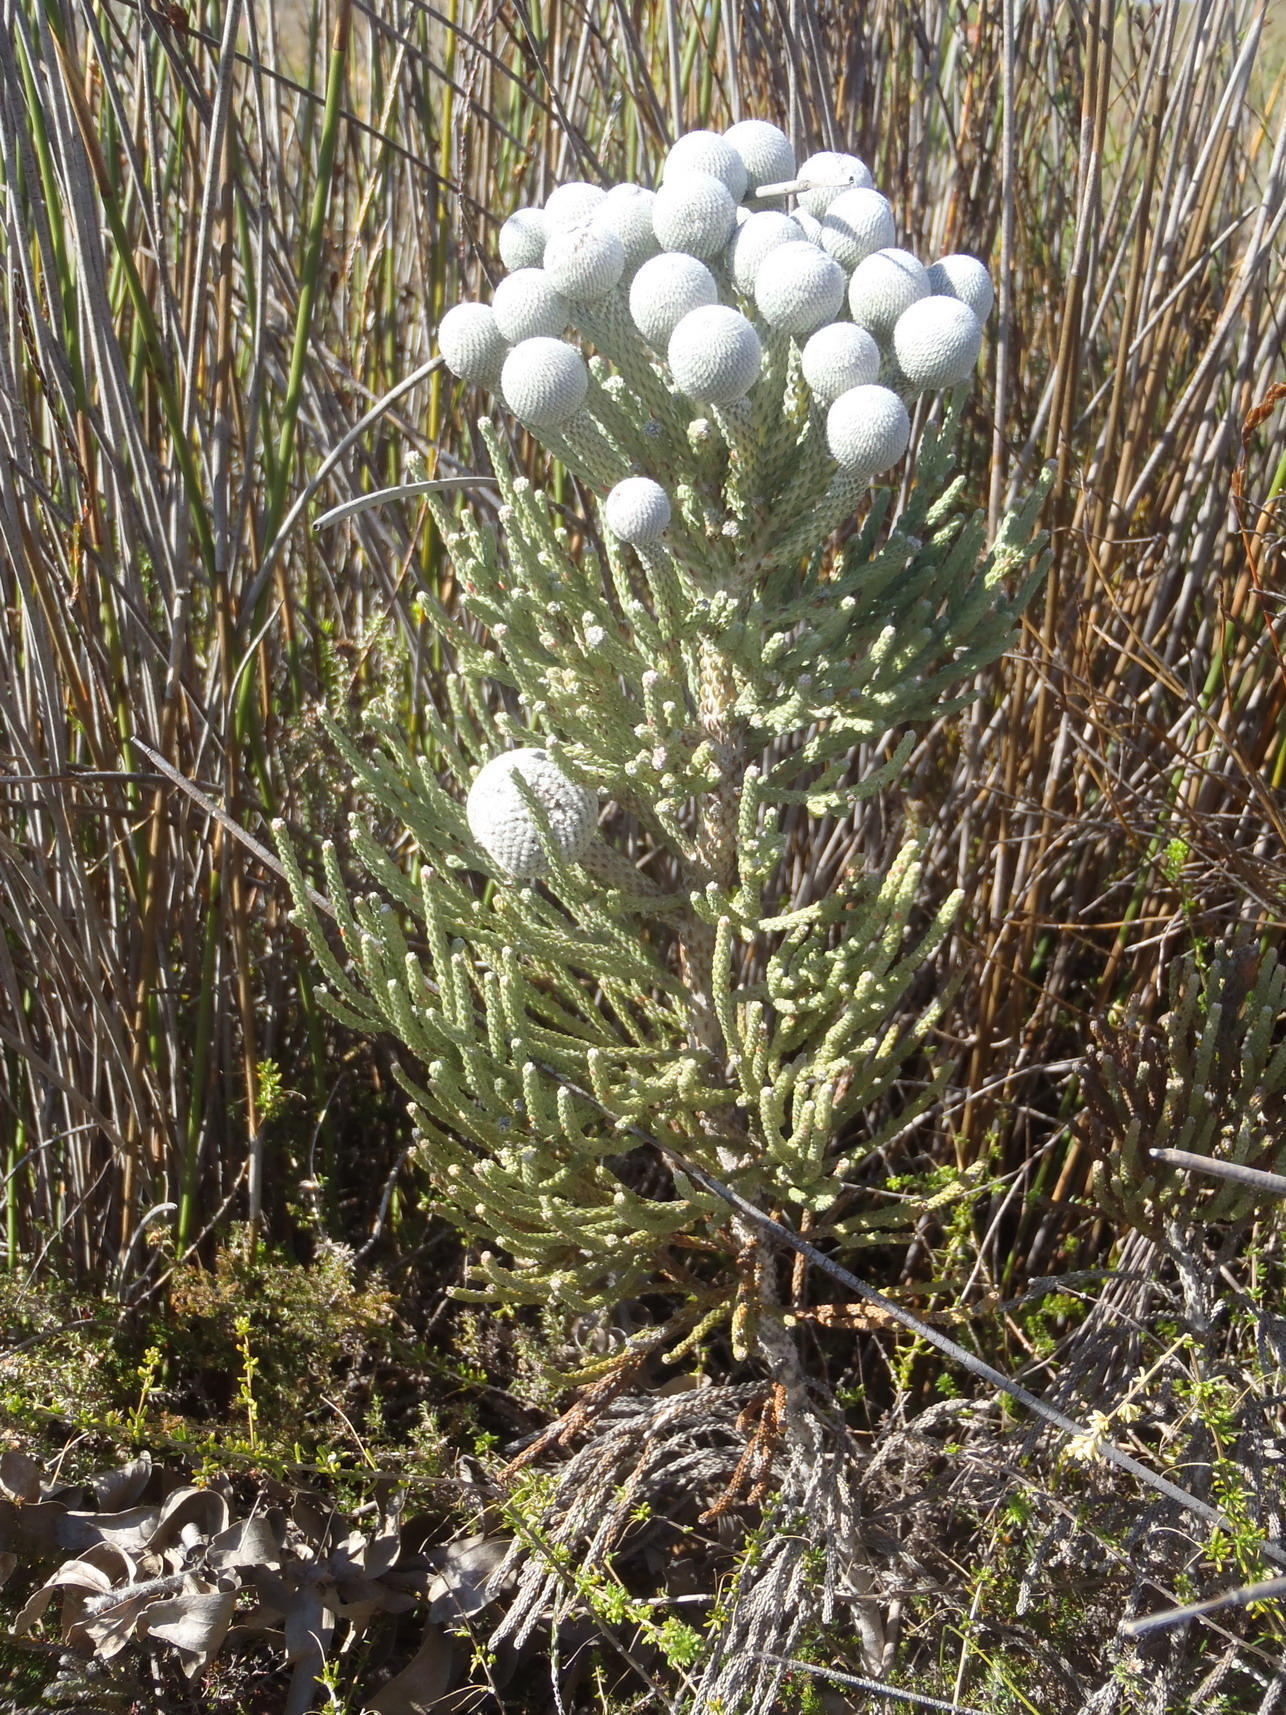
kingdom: Plantae
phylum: Tracheophyta
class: Magnoliopsida
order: Bruniales
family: Bruniaceae
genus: Brunia
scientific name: Brunia laevis
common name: Silver brunia
